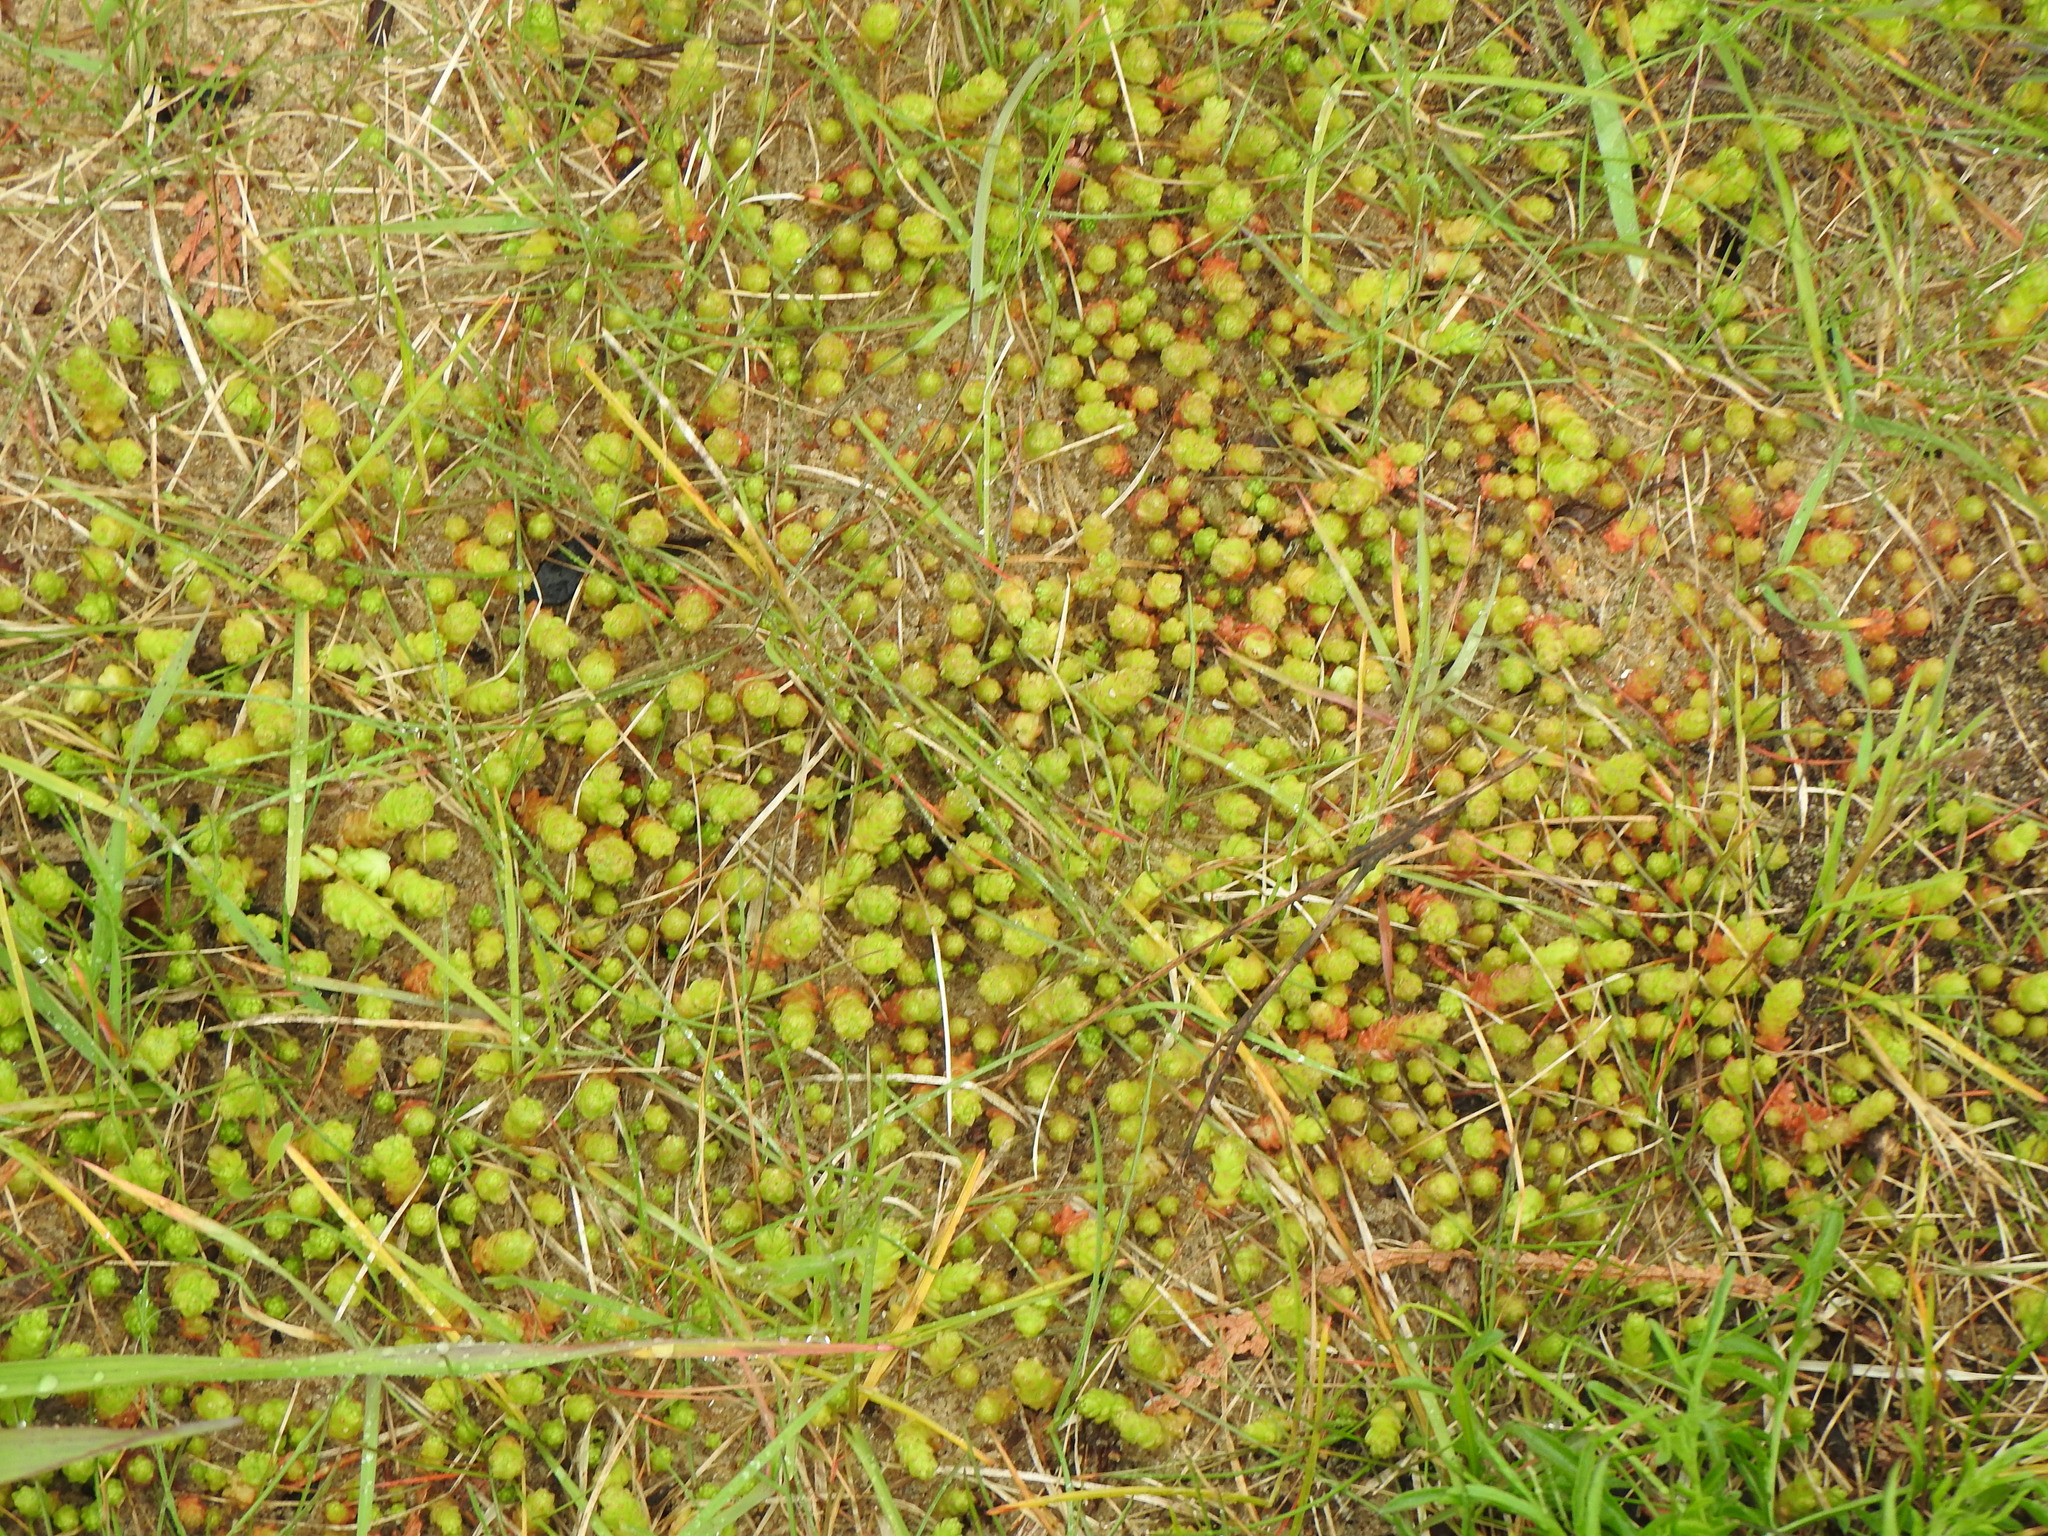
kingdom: Plantae
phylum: Tracheophyta
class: Magnoliopsida
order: Saxifragales
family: Crassulaceae
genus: Sedum
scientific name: Sedum acre
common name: Biting stonecrop
